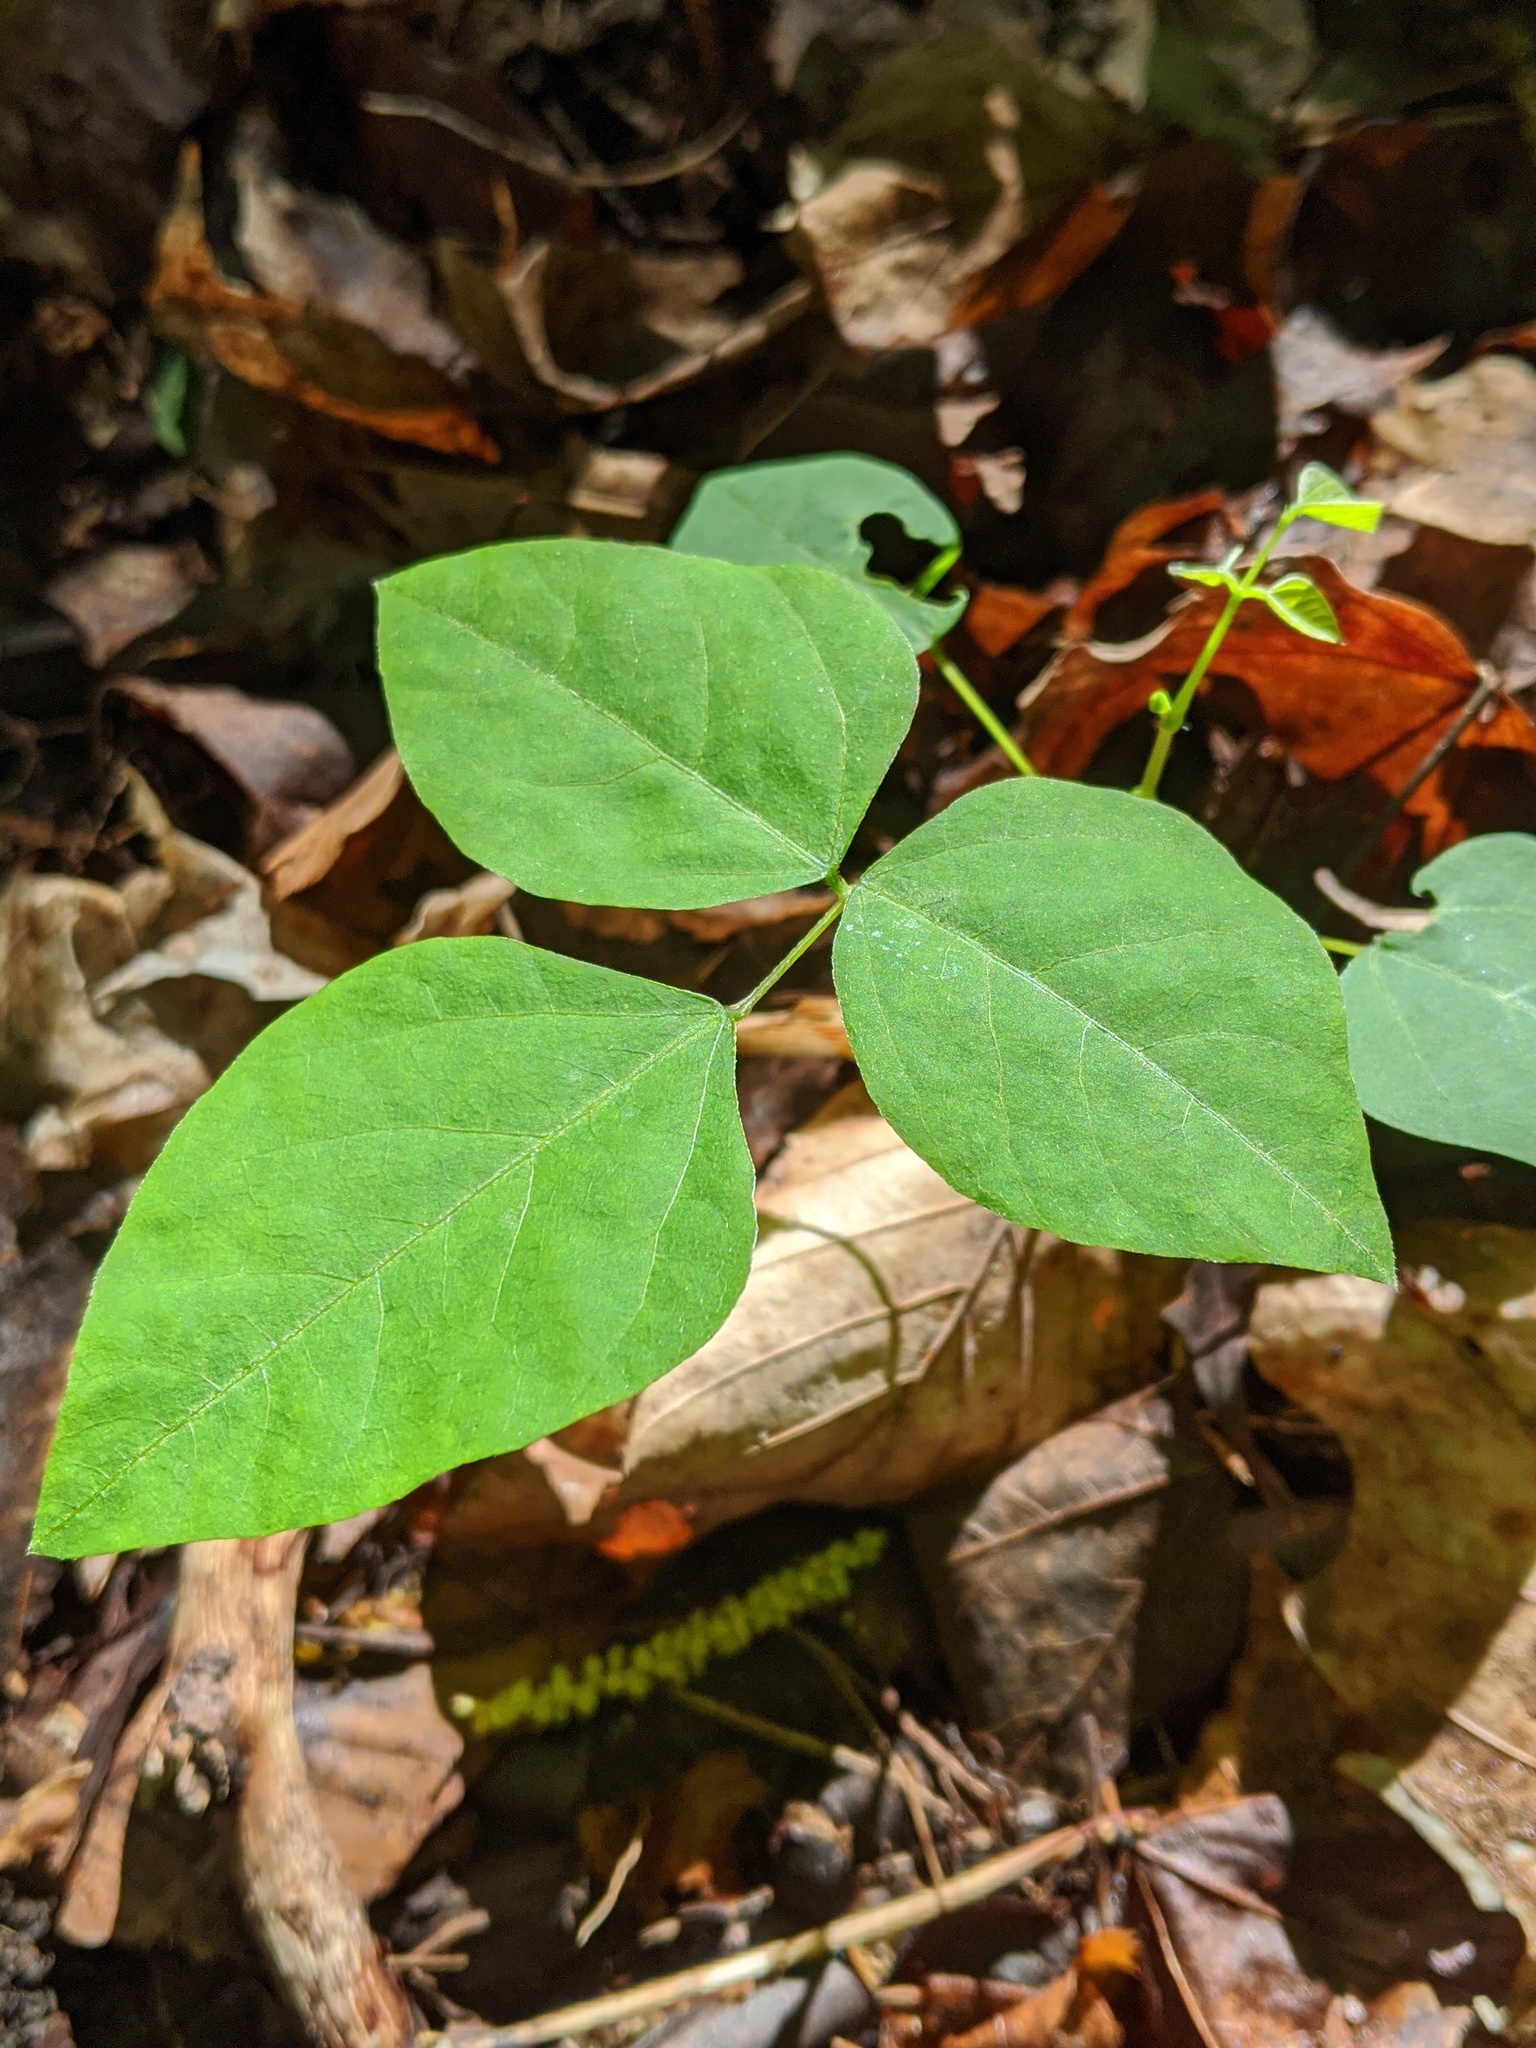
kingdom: Plantae
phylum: Tracheophyta
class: Magnoliopsida
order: Fabales
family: Fabaceae
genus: Amphicarpaea
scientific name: Amphicarpaea bracteata
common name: American hog peanut
